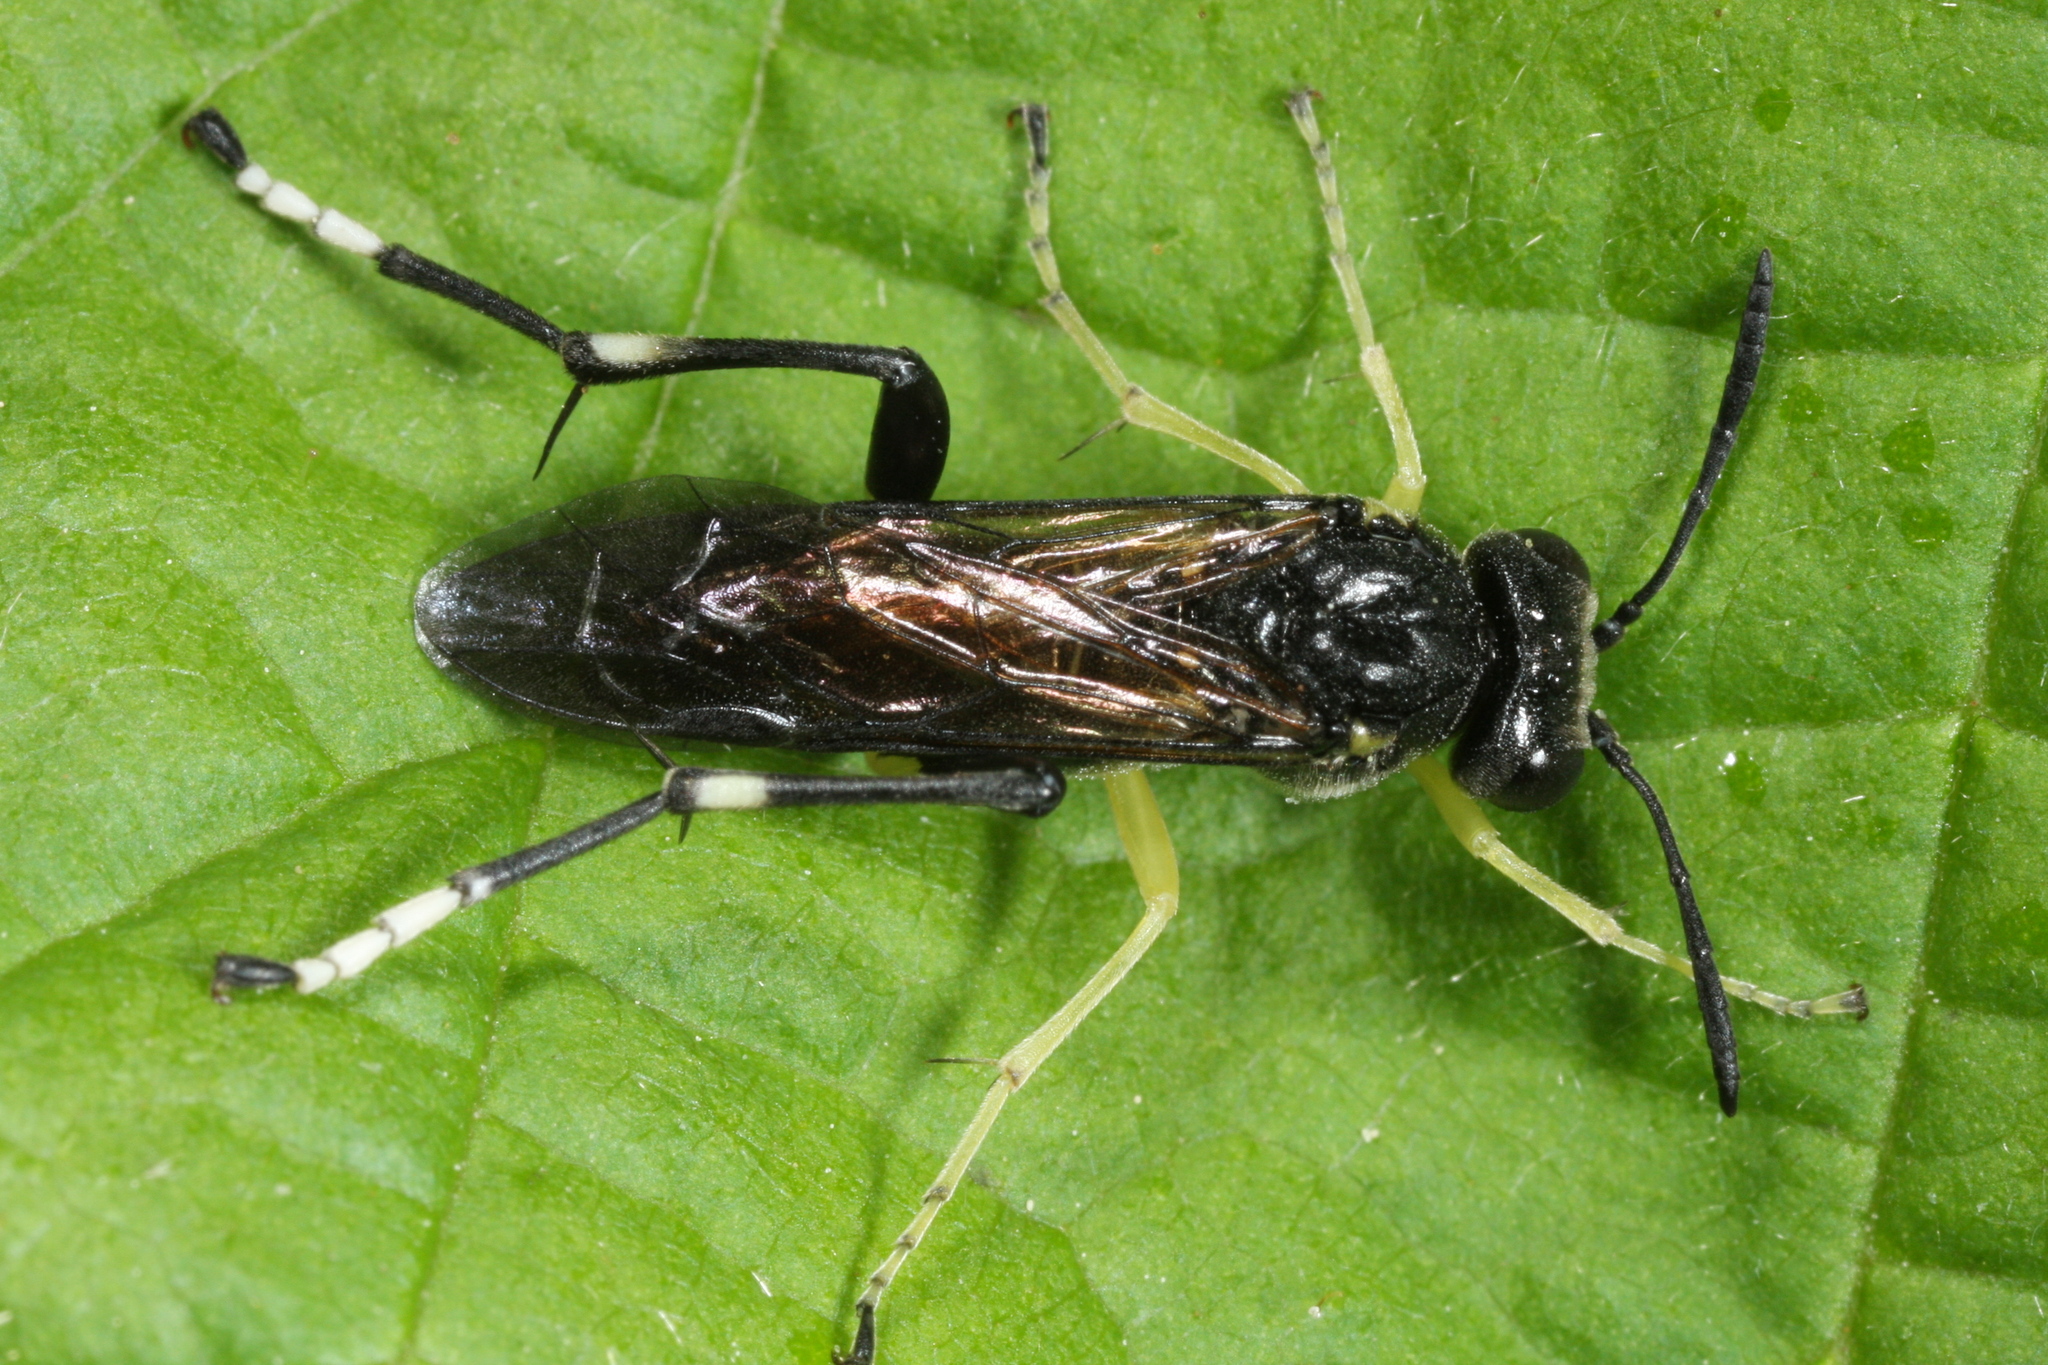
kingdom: Animalia
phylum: Arthropoda
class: Insecta
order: Hymenoptera
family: Tenthredinidae
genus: Macrophya
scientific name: Macrophya montana
